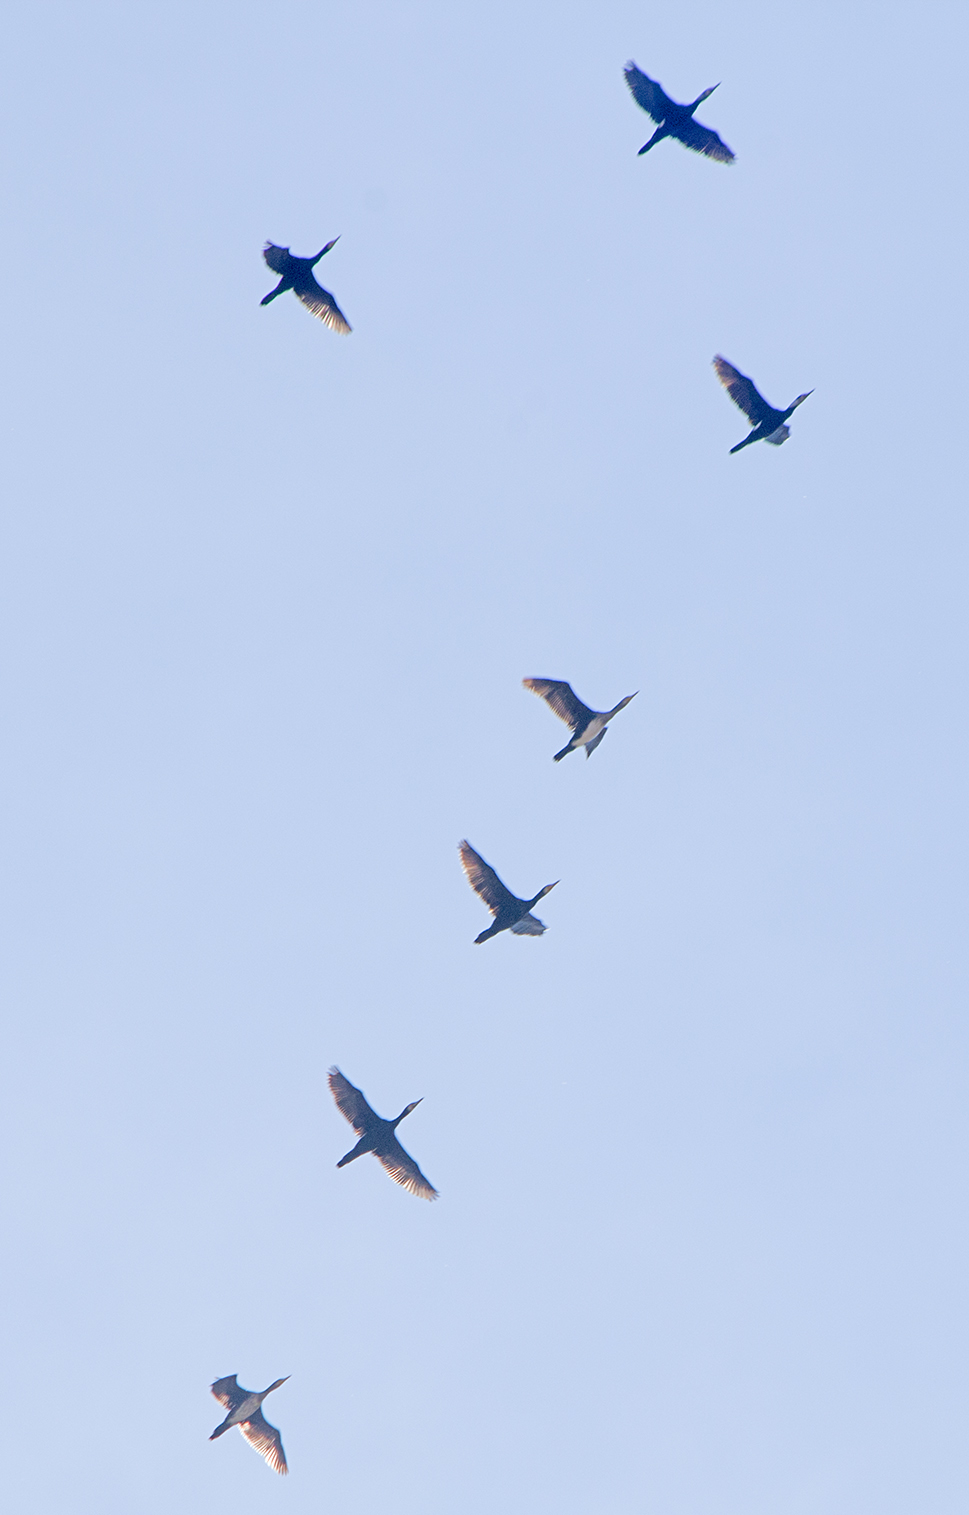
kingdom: Animalia
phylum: Chordata
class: Aves
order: Suliformes
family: Phalacrocoracidae
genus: Phalacrocorax
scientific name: Phalacrocorax carbo
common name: Great cormorant
